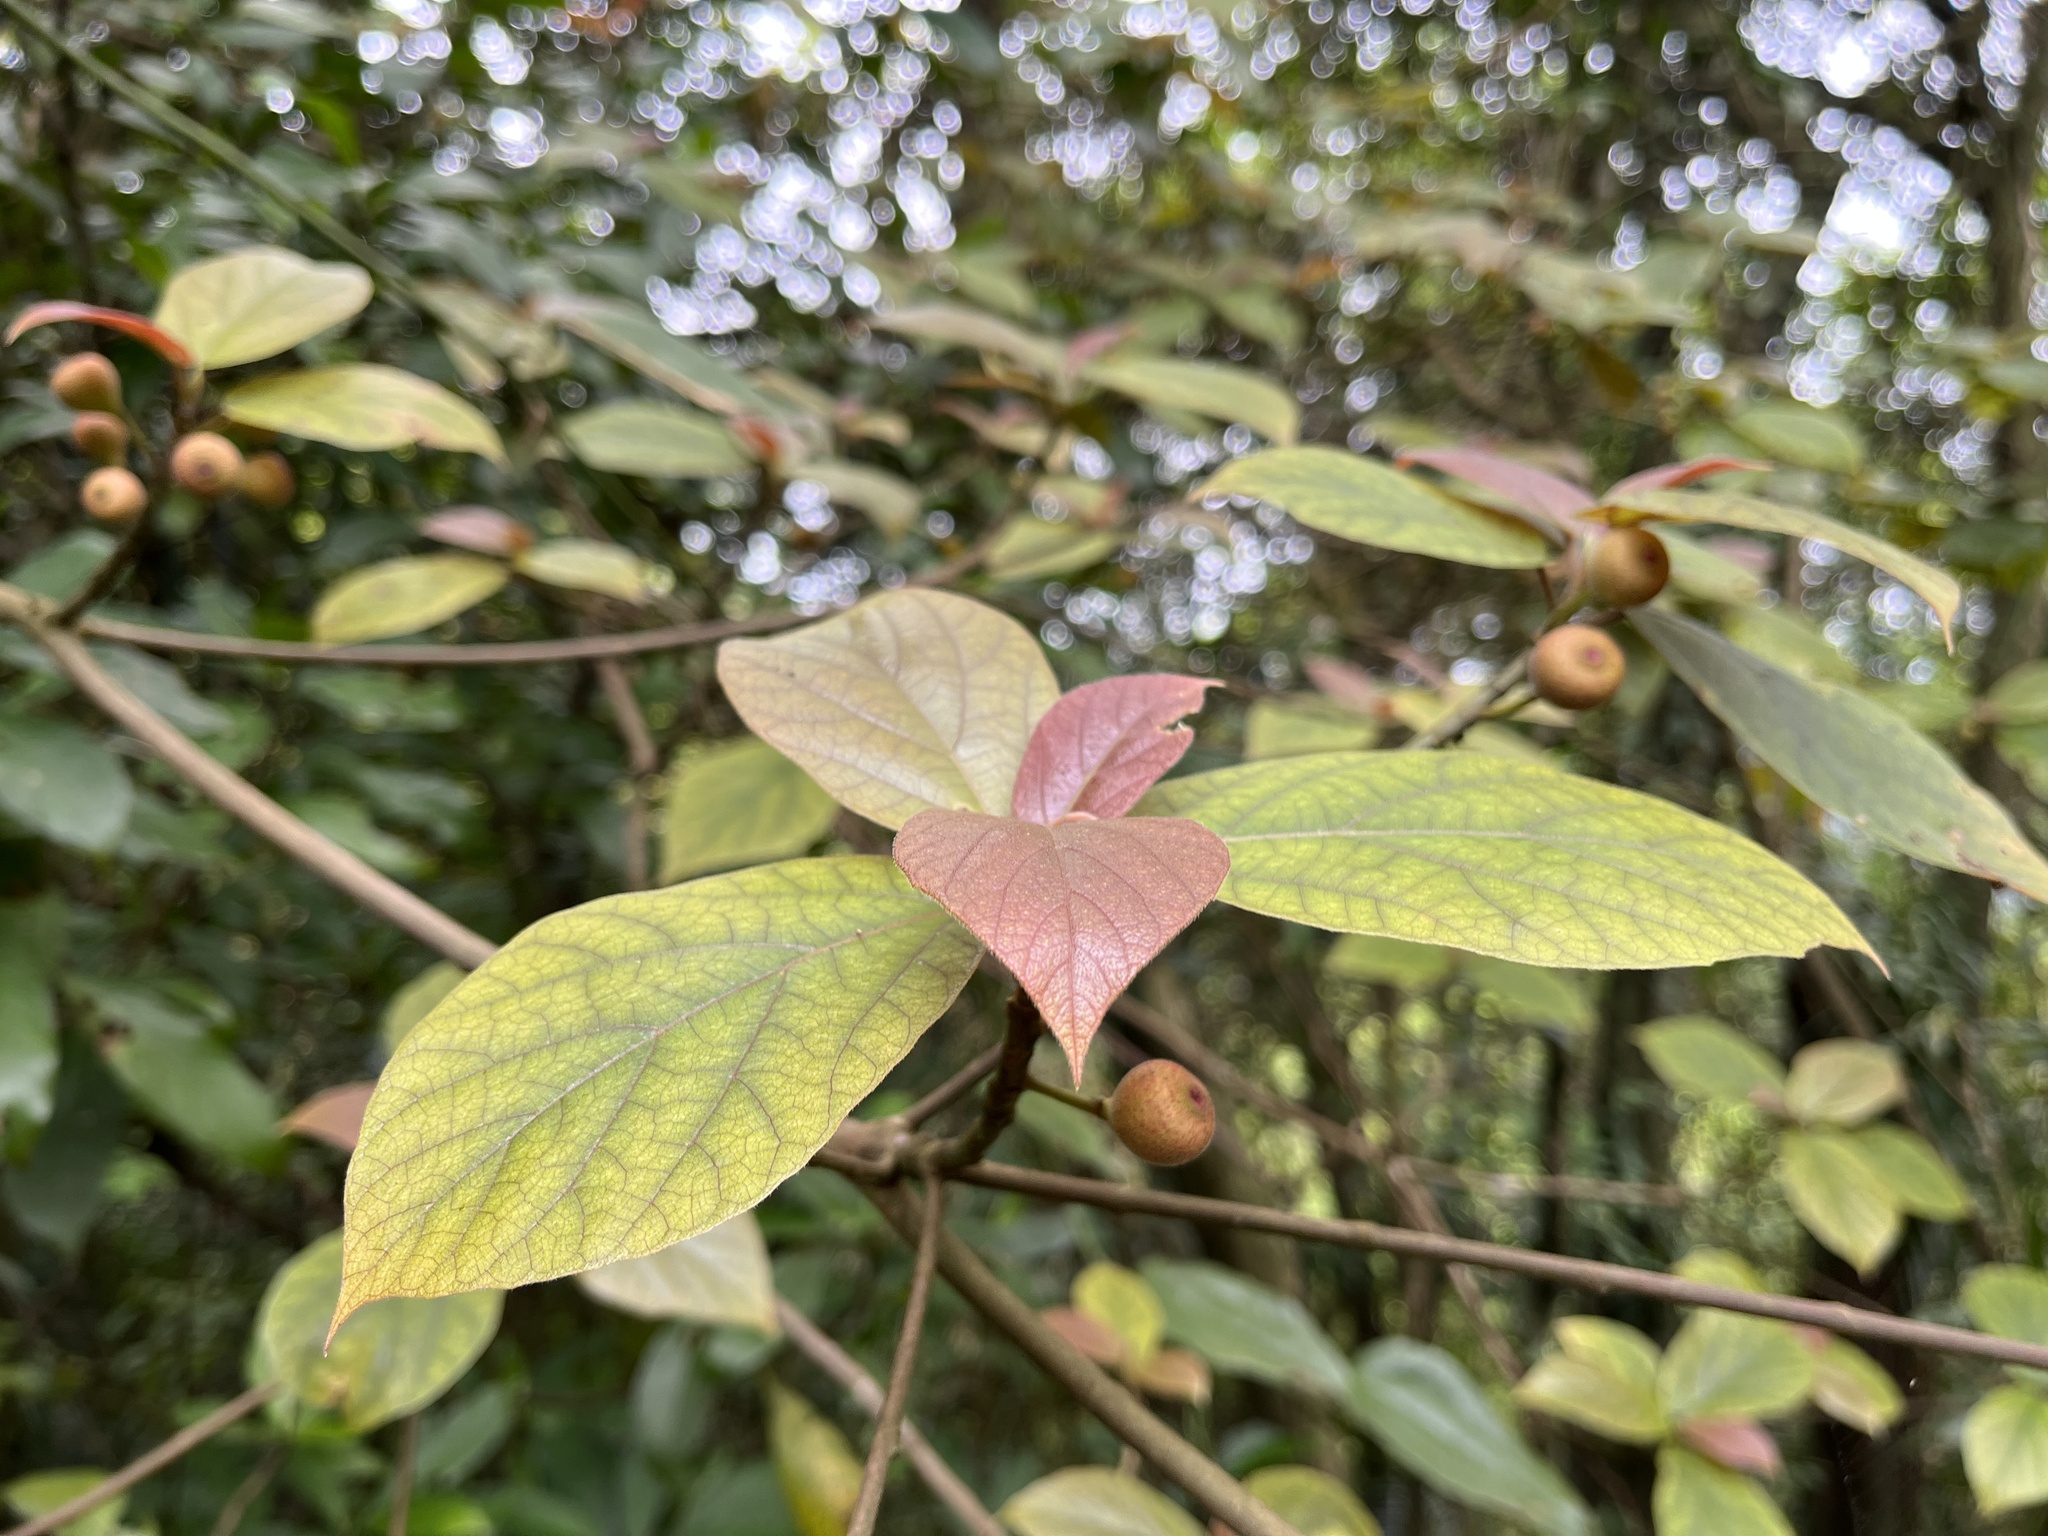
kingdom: Plantae
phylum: Tracheophyta
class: Magnoliopsida
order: Rosales
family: Moraceae
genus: Ficus
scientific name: Ficus erecta
